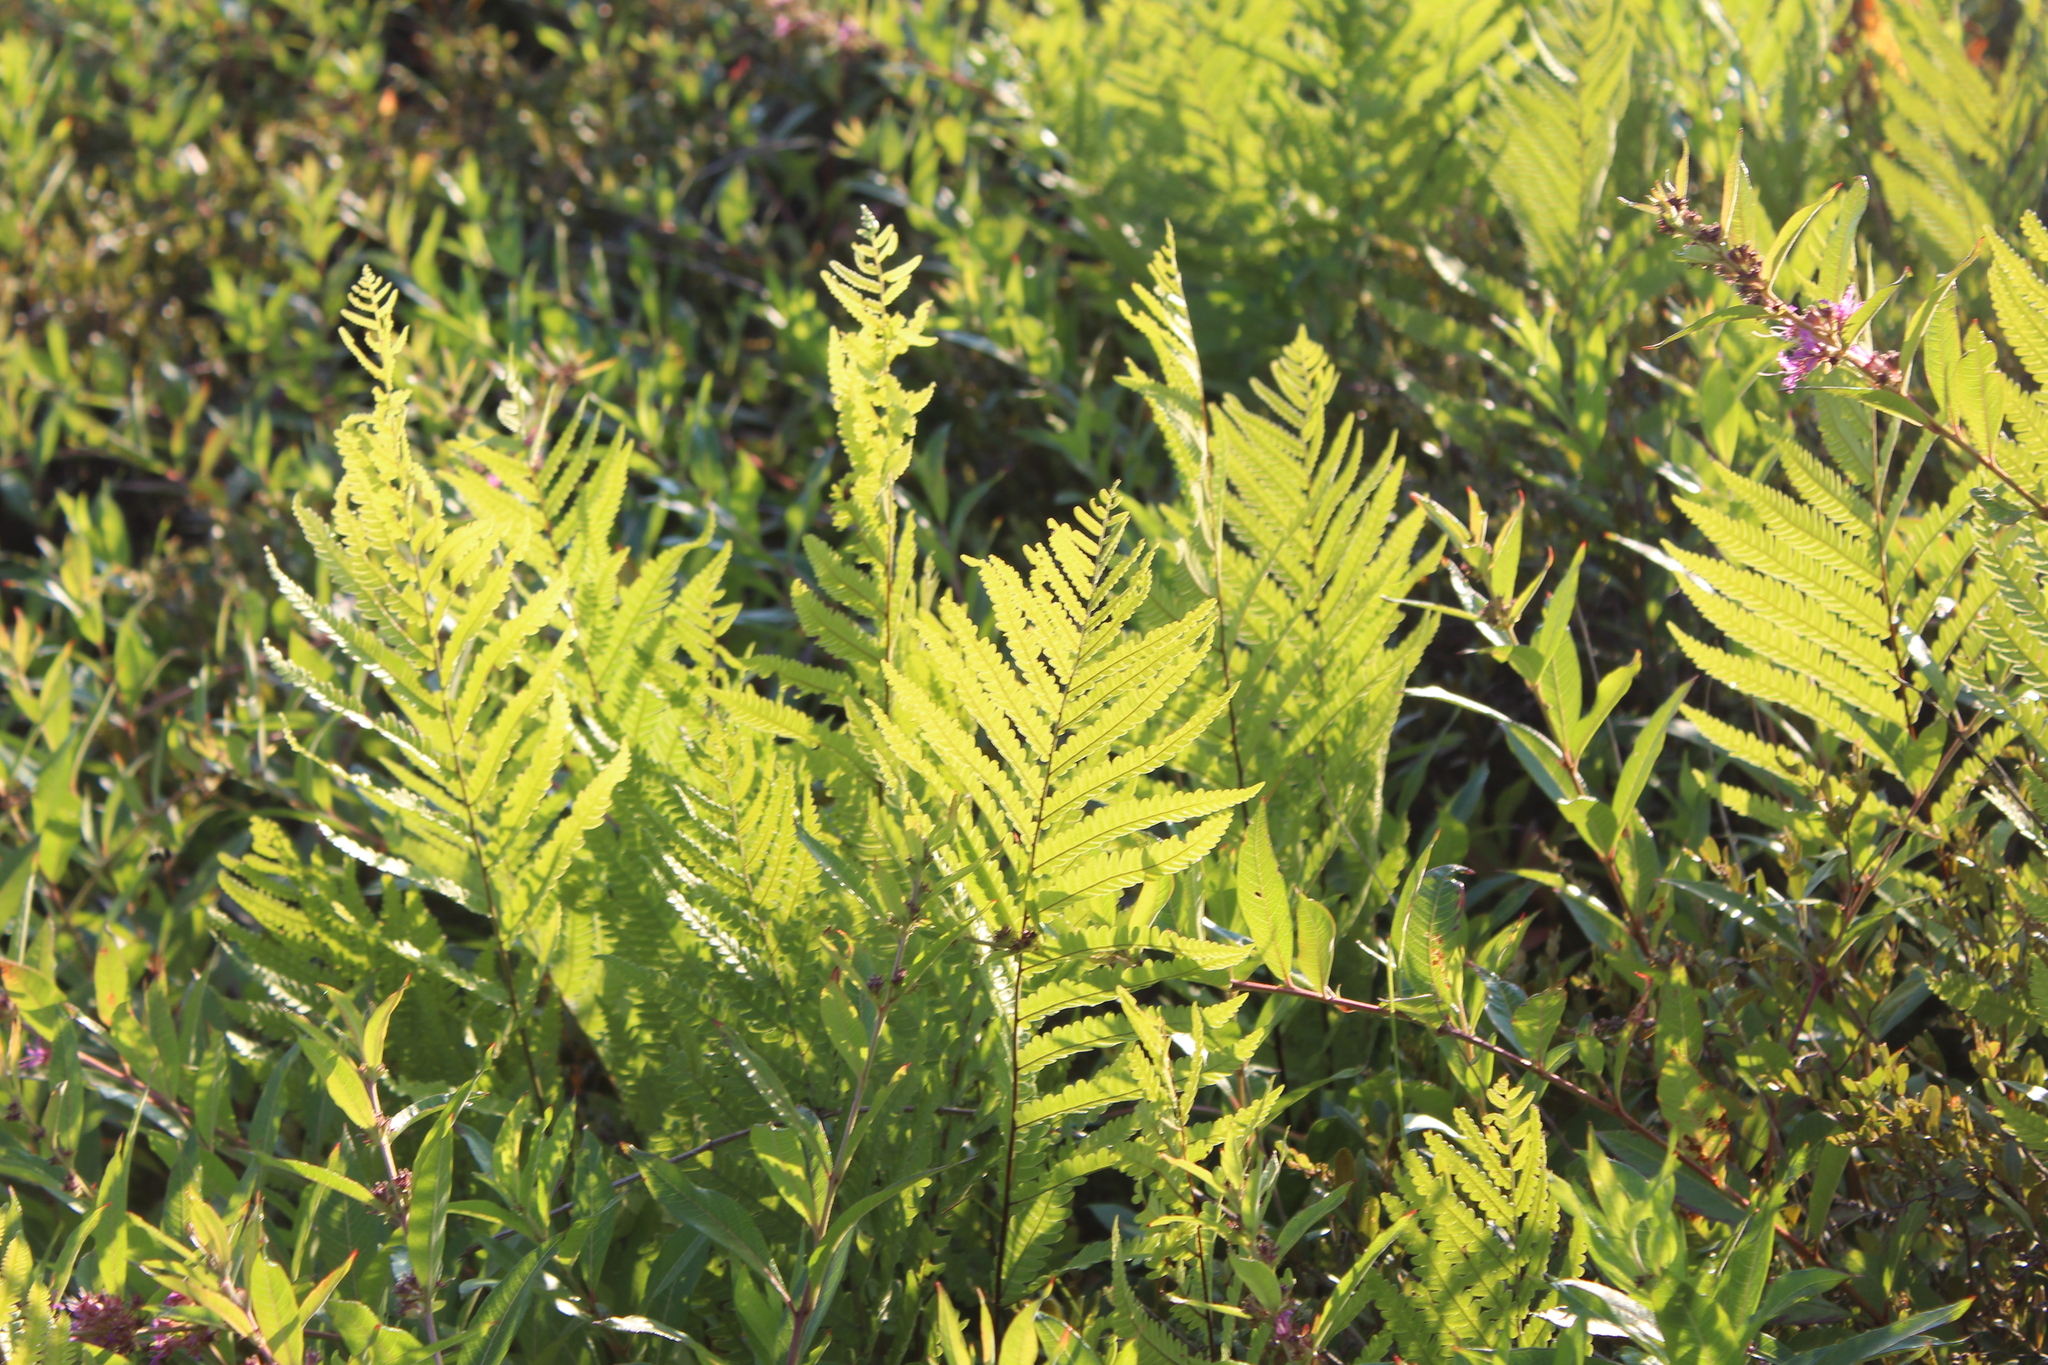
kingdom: Plantae
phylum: Tracheophyta
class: Polypodiopsida
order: Polypodiales
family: Blechnaceae
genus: Anchistea
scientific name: Anchistea virginica
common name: Virginia chain fern
